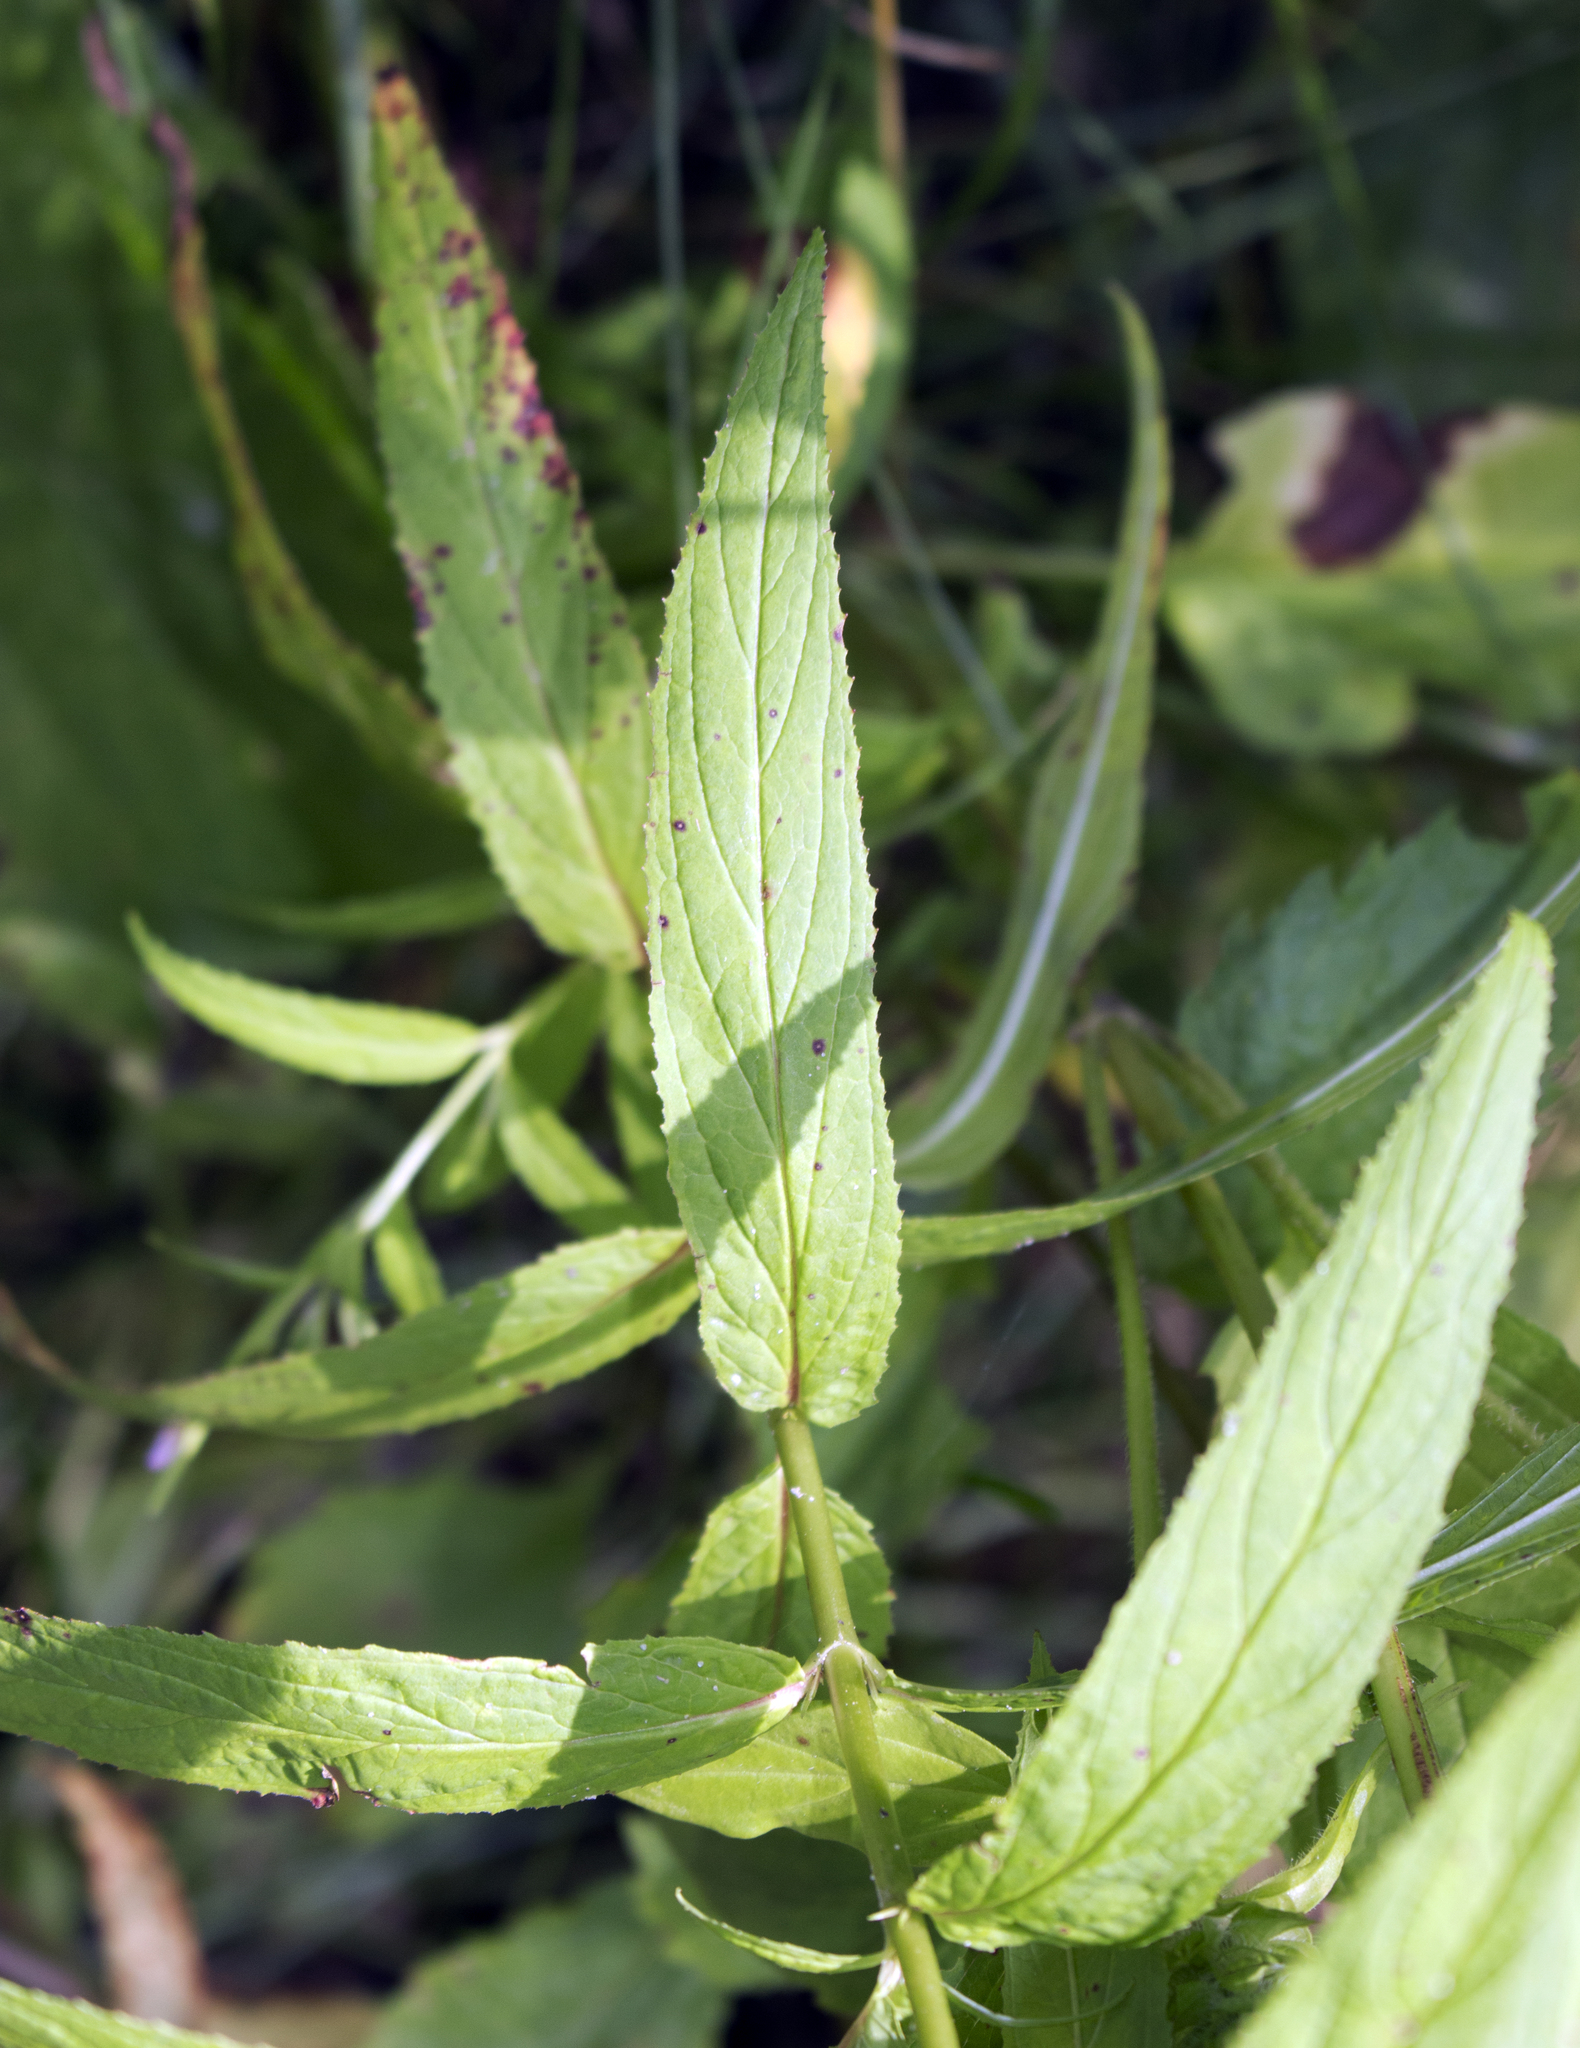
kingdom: Plantae
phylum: Tracheophyta
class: Magnoliopsida
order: Myrtales
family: Onagraceae
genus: Epilobium
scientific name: Epilobium coloratum
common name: Bronze willowherb
